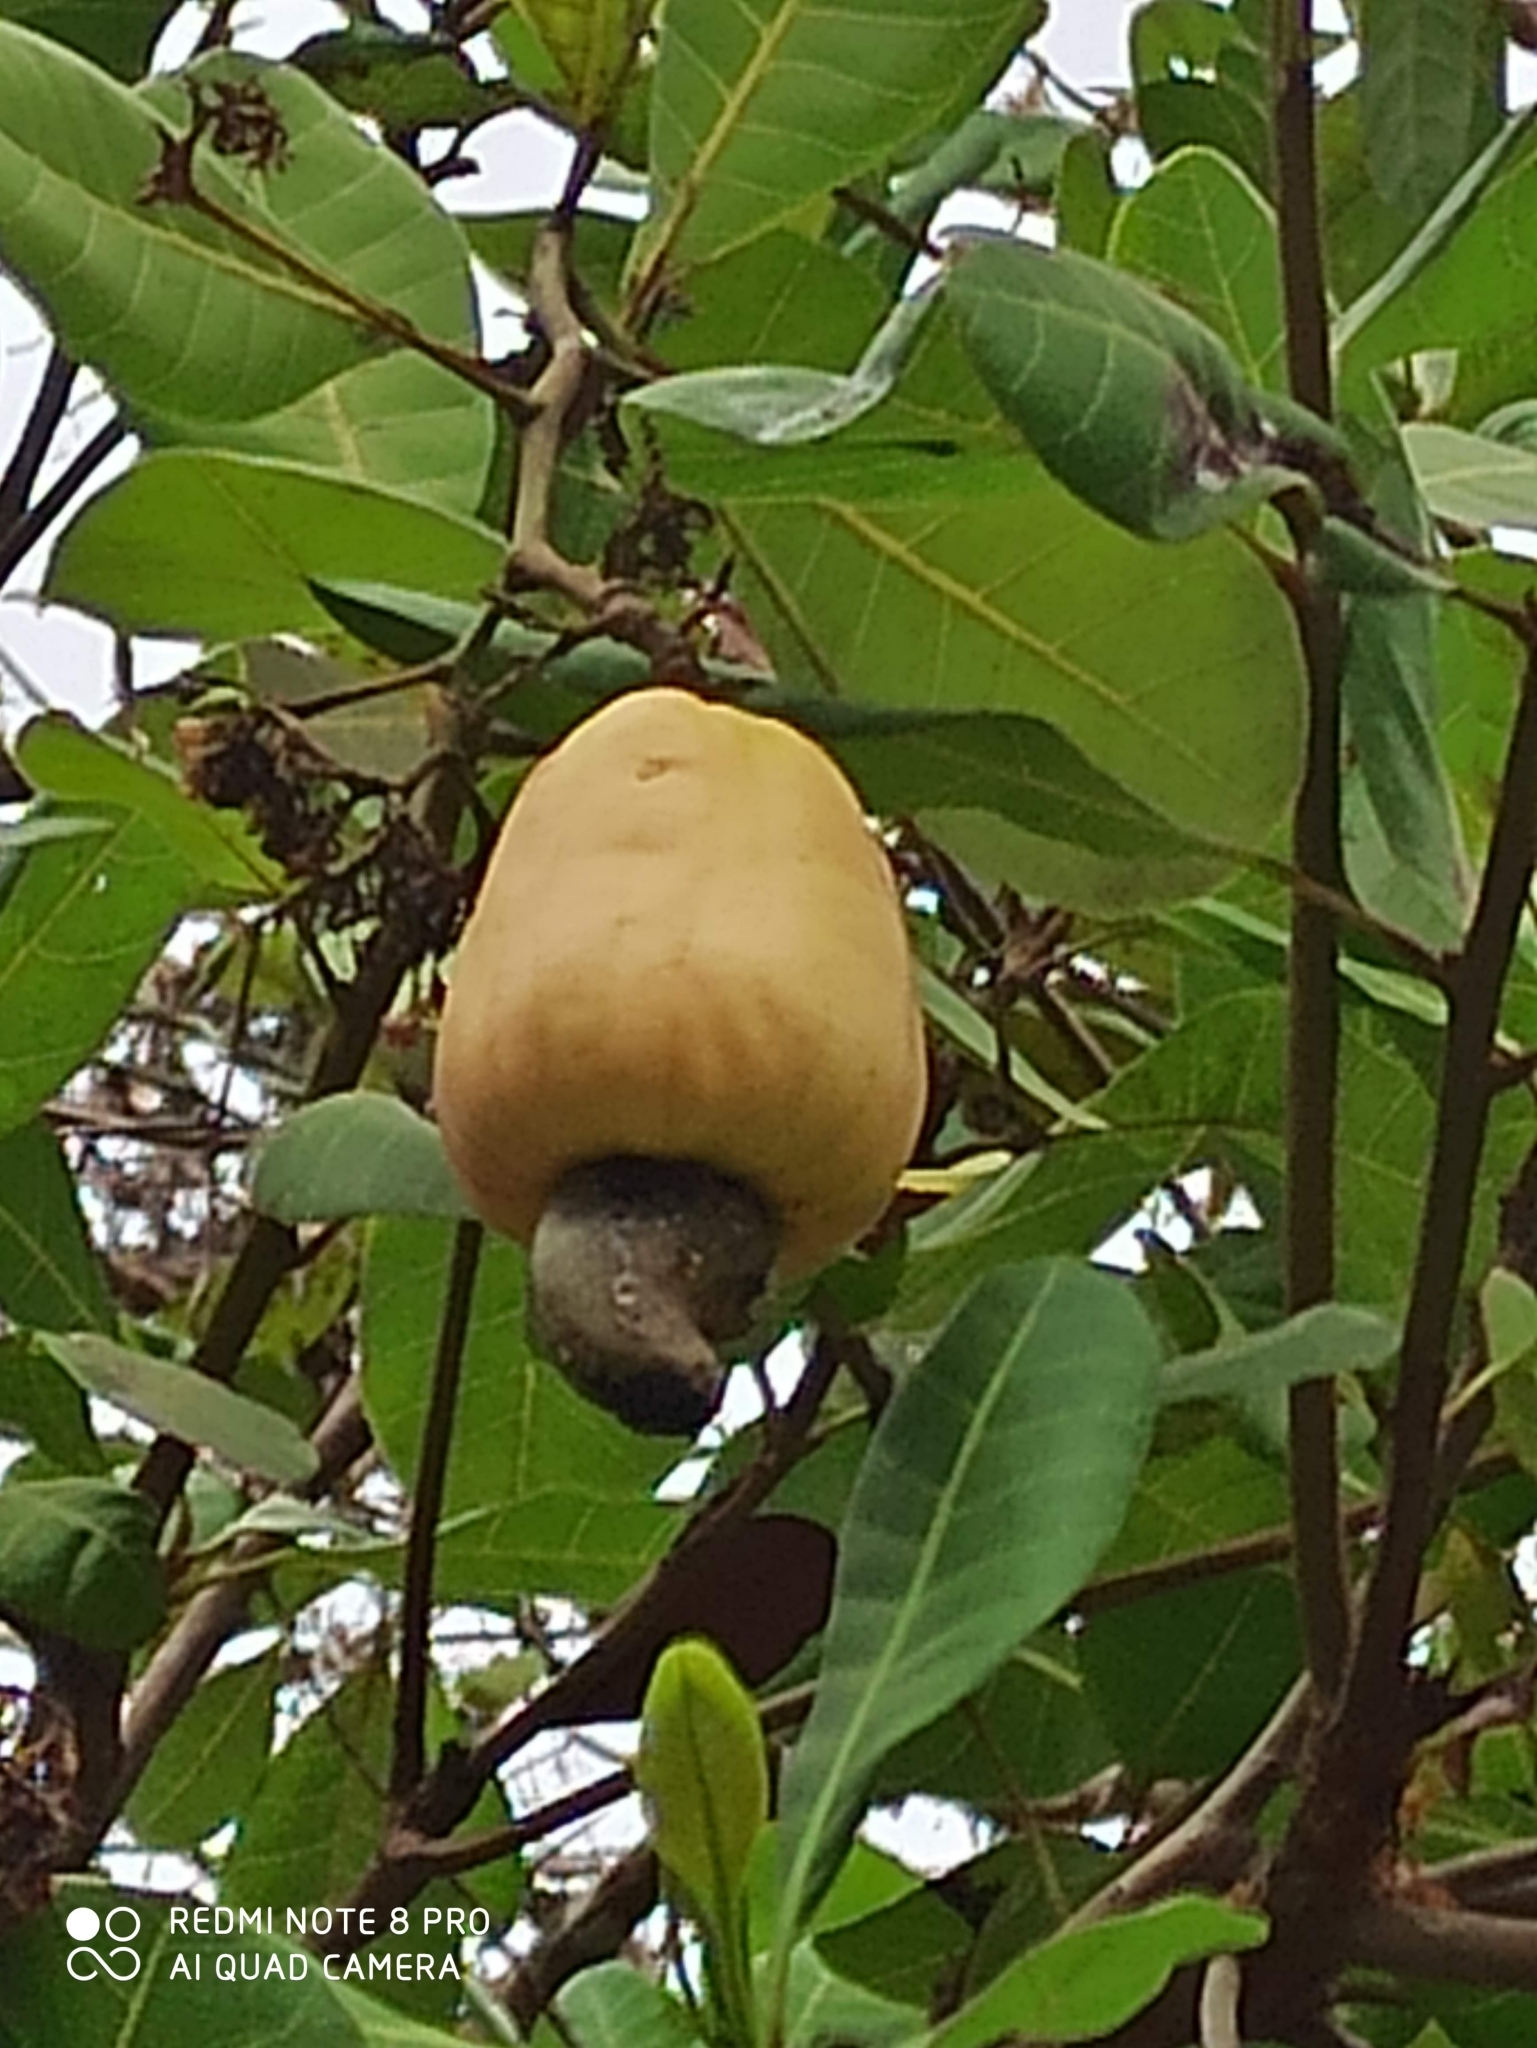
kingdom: Plantae
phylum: Tracheophyta
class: Magnoliopsida
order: Sapindales
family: Anacardiaceae
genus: Anacardium
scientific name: Anacardium occidentale
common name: Cashew
